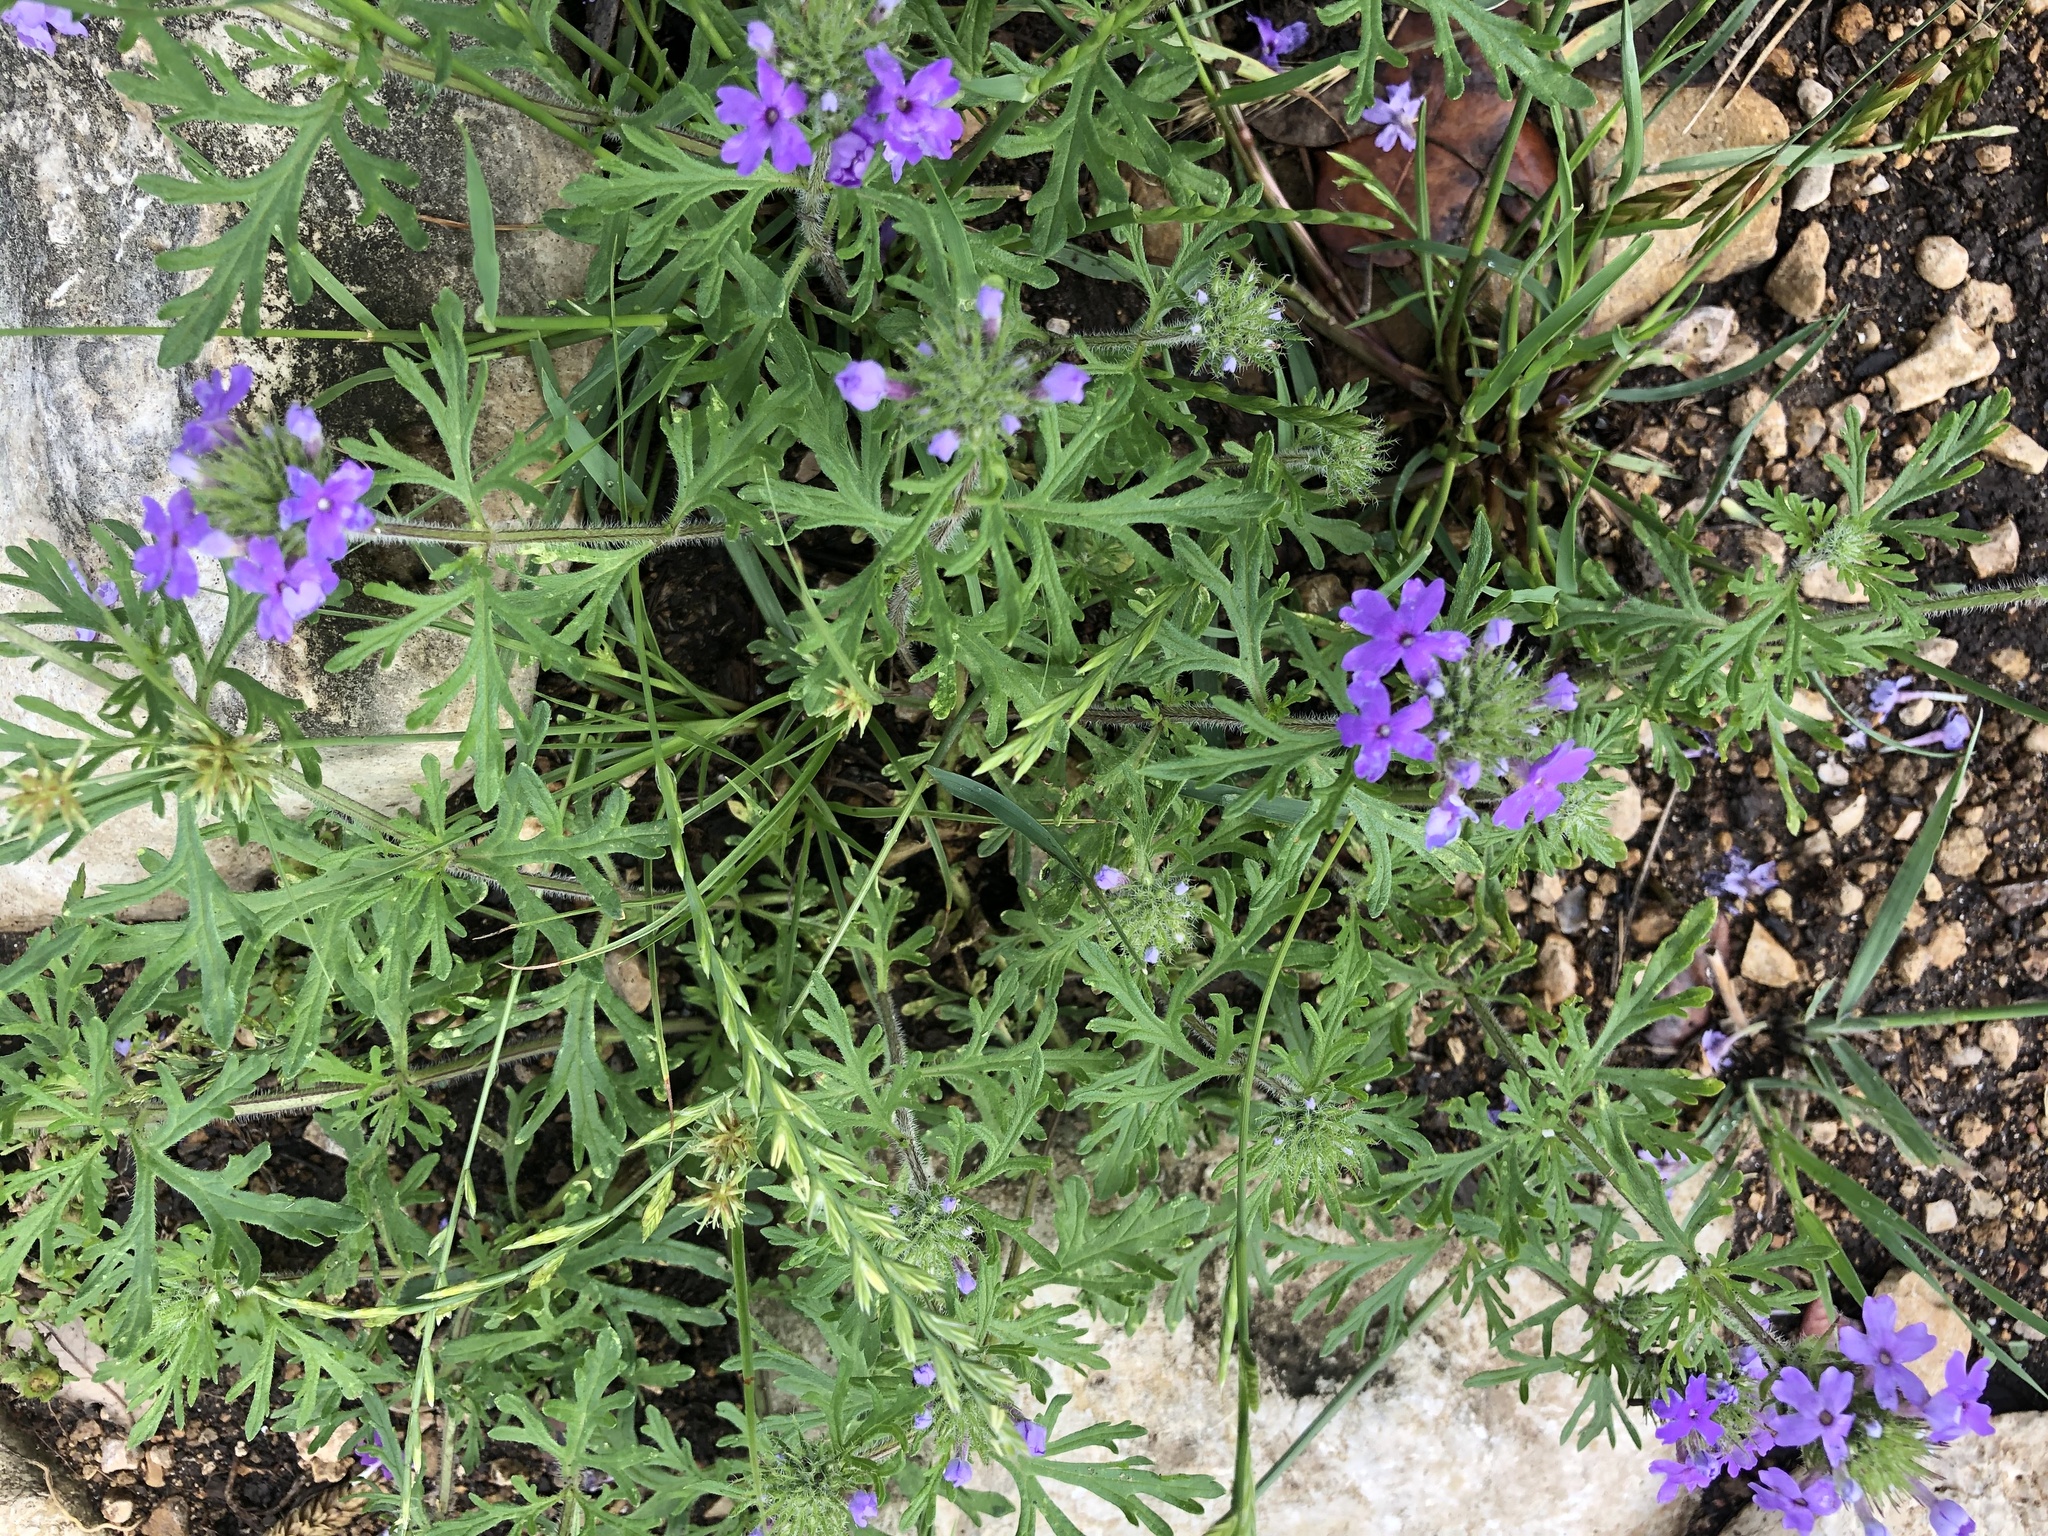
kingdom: Plantae
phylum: Tracheophyta
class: Magnoliopsida
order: Lamiales
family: Verbenaceae
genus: Verbena
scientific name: Verbena bipinnatifida
